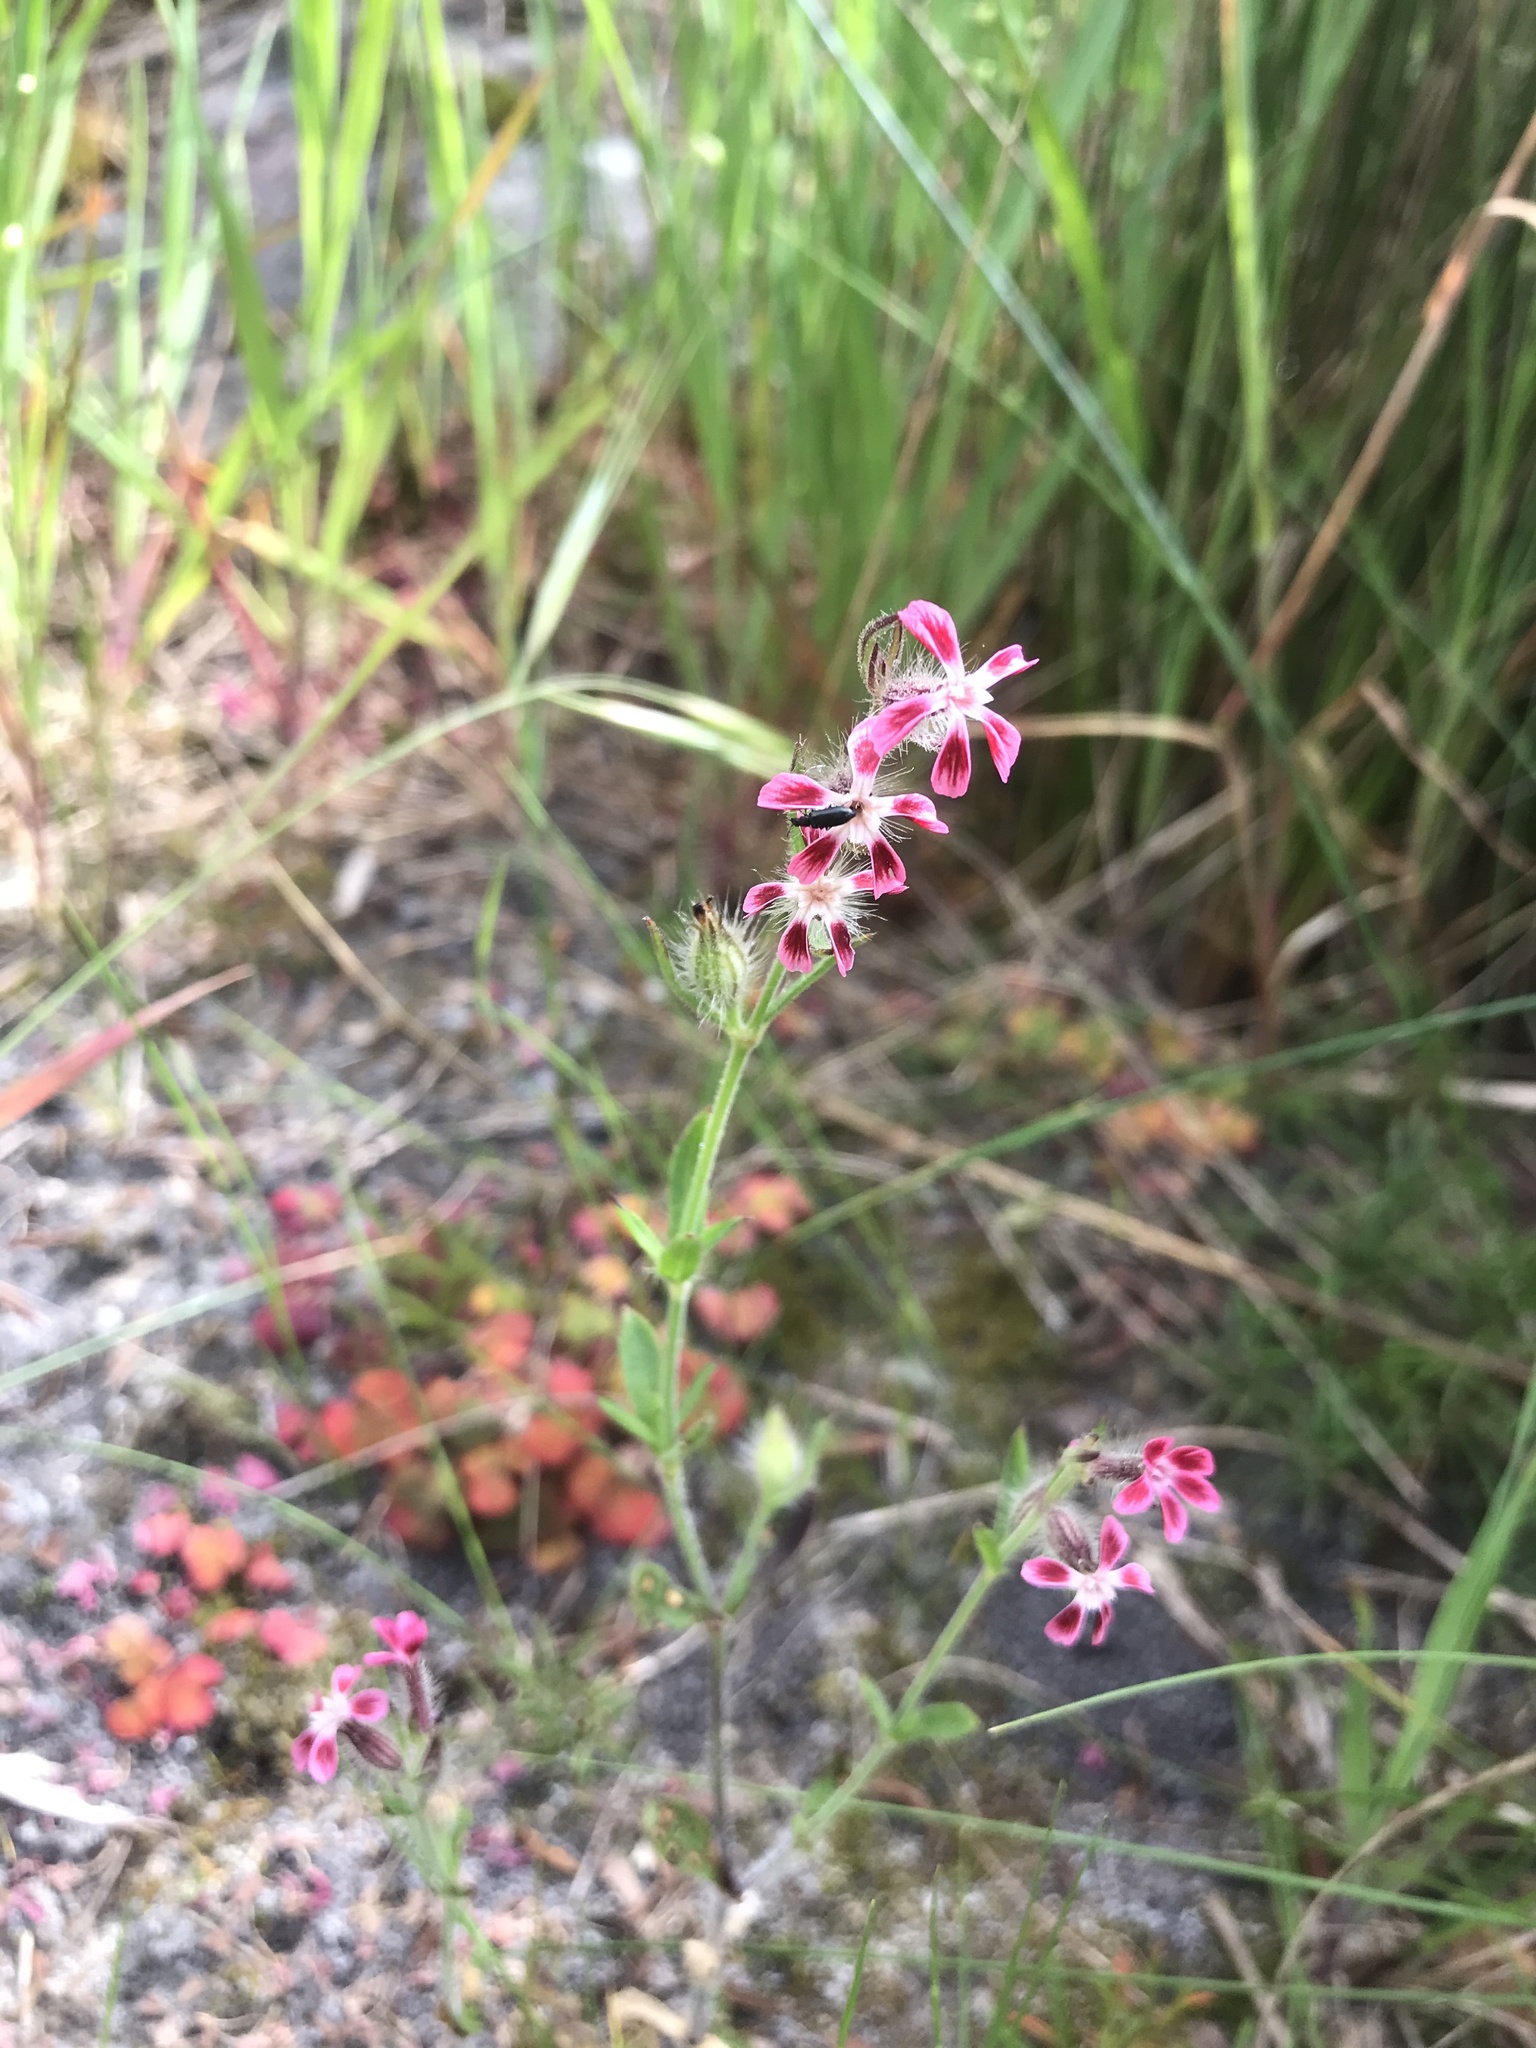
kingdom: Plantae
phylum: Tracheophyta
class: Magnoliopsida
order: Caryophyllales
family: Caryophyllaceae
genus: Silene
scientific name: Silene gallica
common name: Small-flowered catchfly
